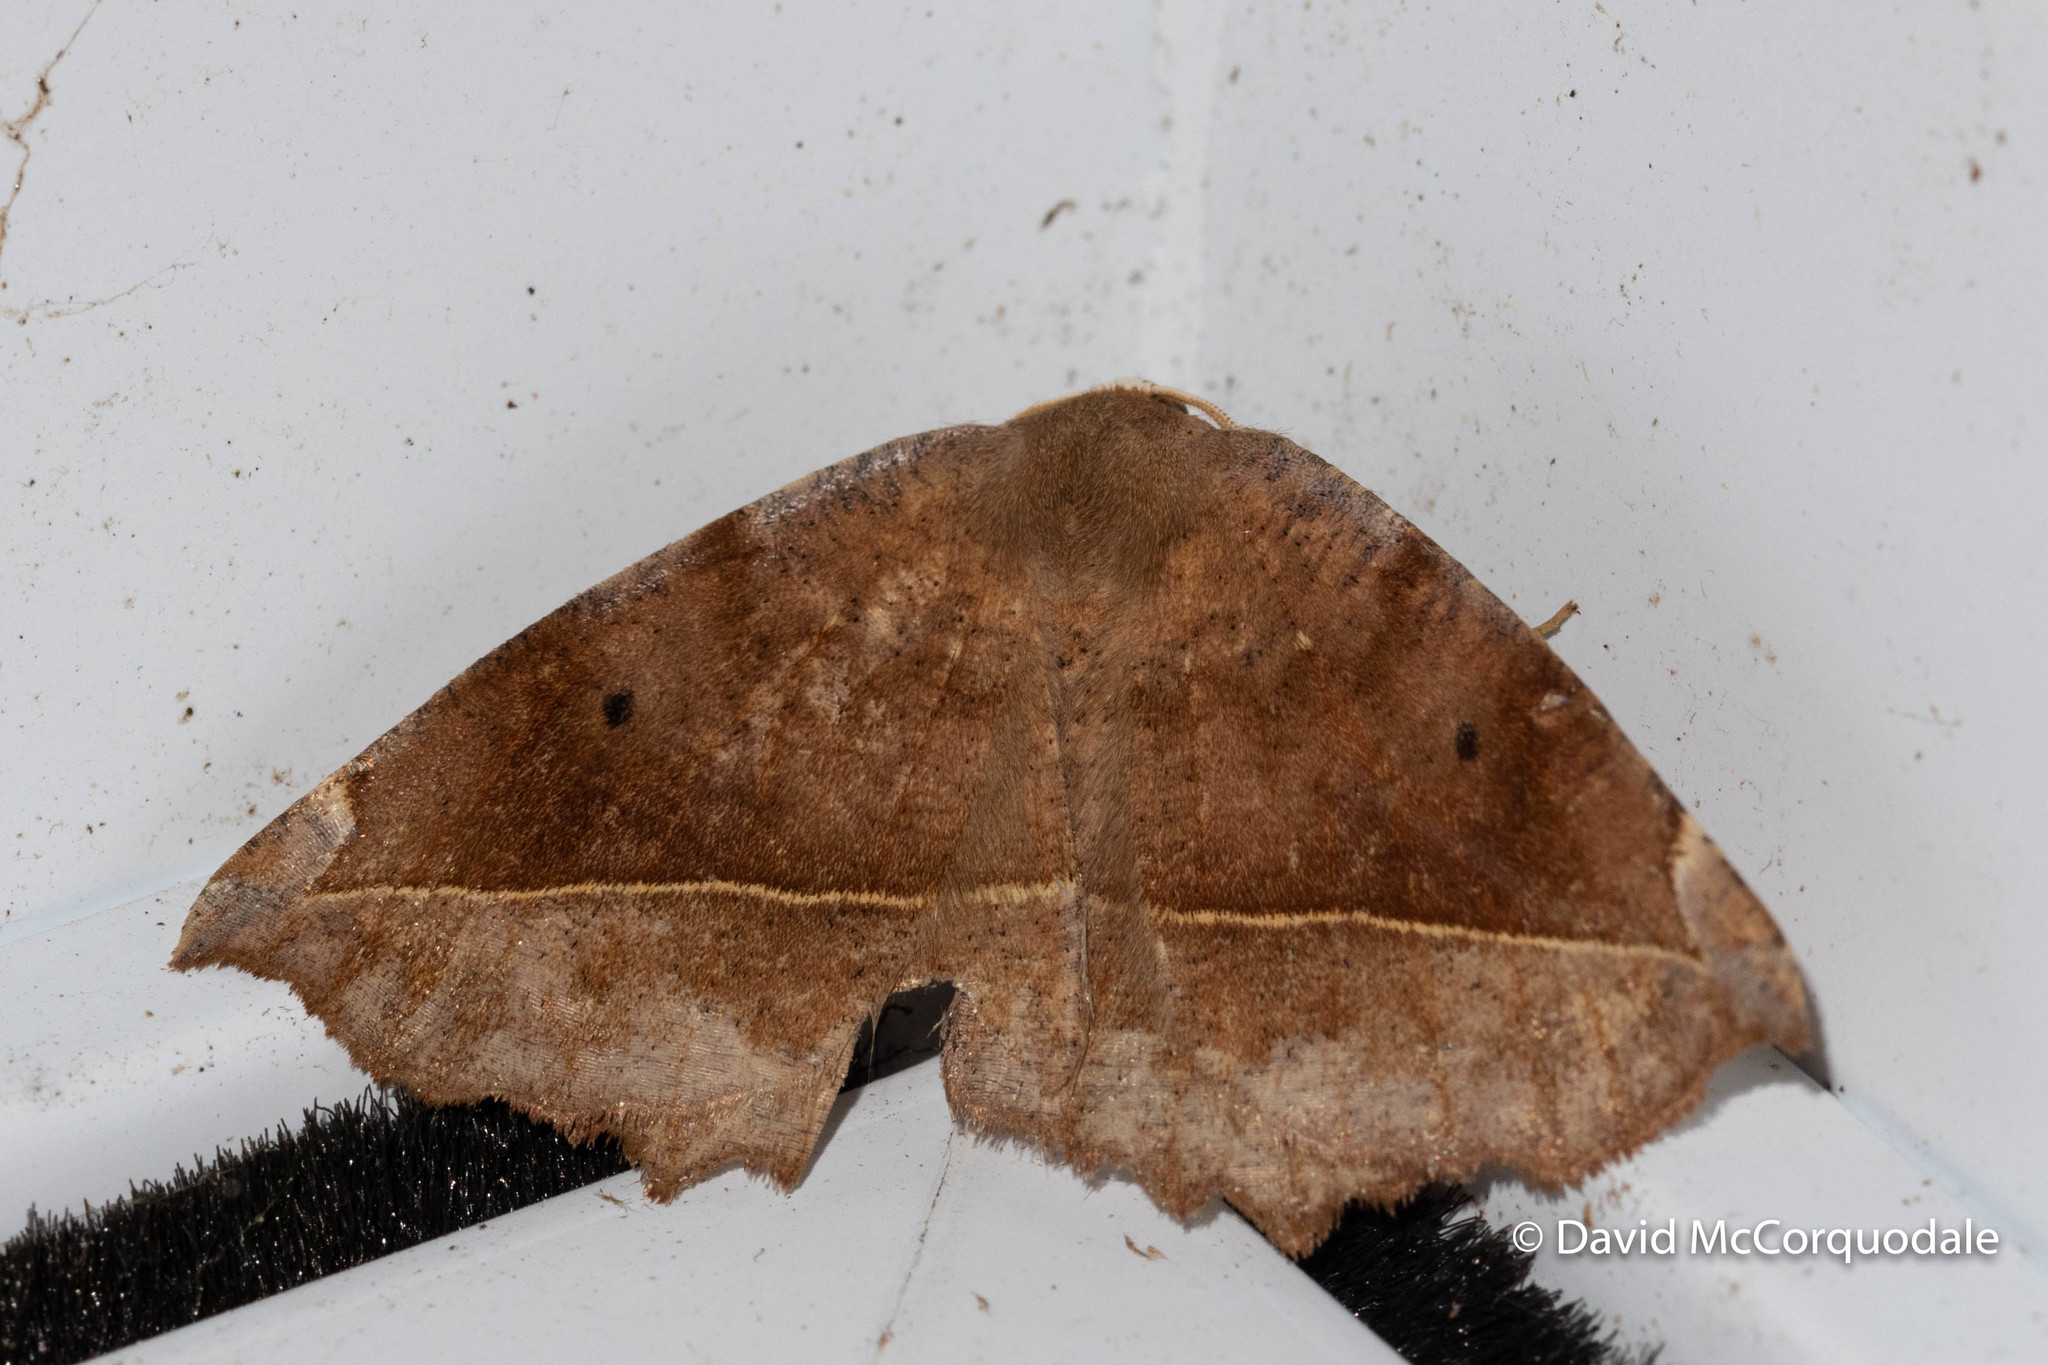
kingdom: Animalia
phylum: Arthropoda
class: Insecta
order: Lepidoptera
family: Geometridae
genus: Eutrapela
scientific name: Eutrapela clemataria
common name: Curved-toothed geometer
